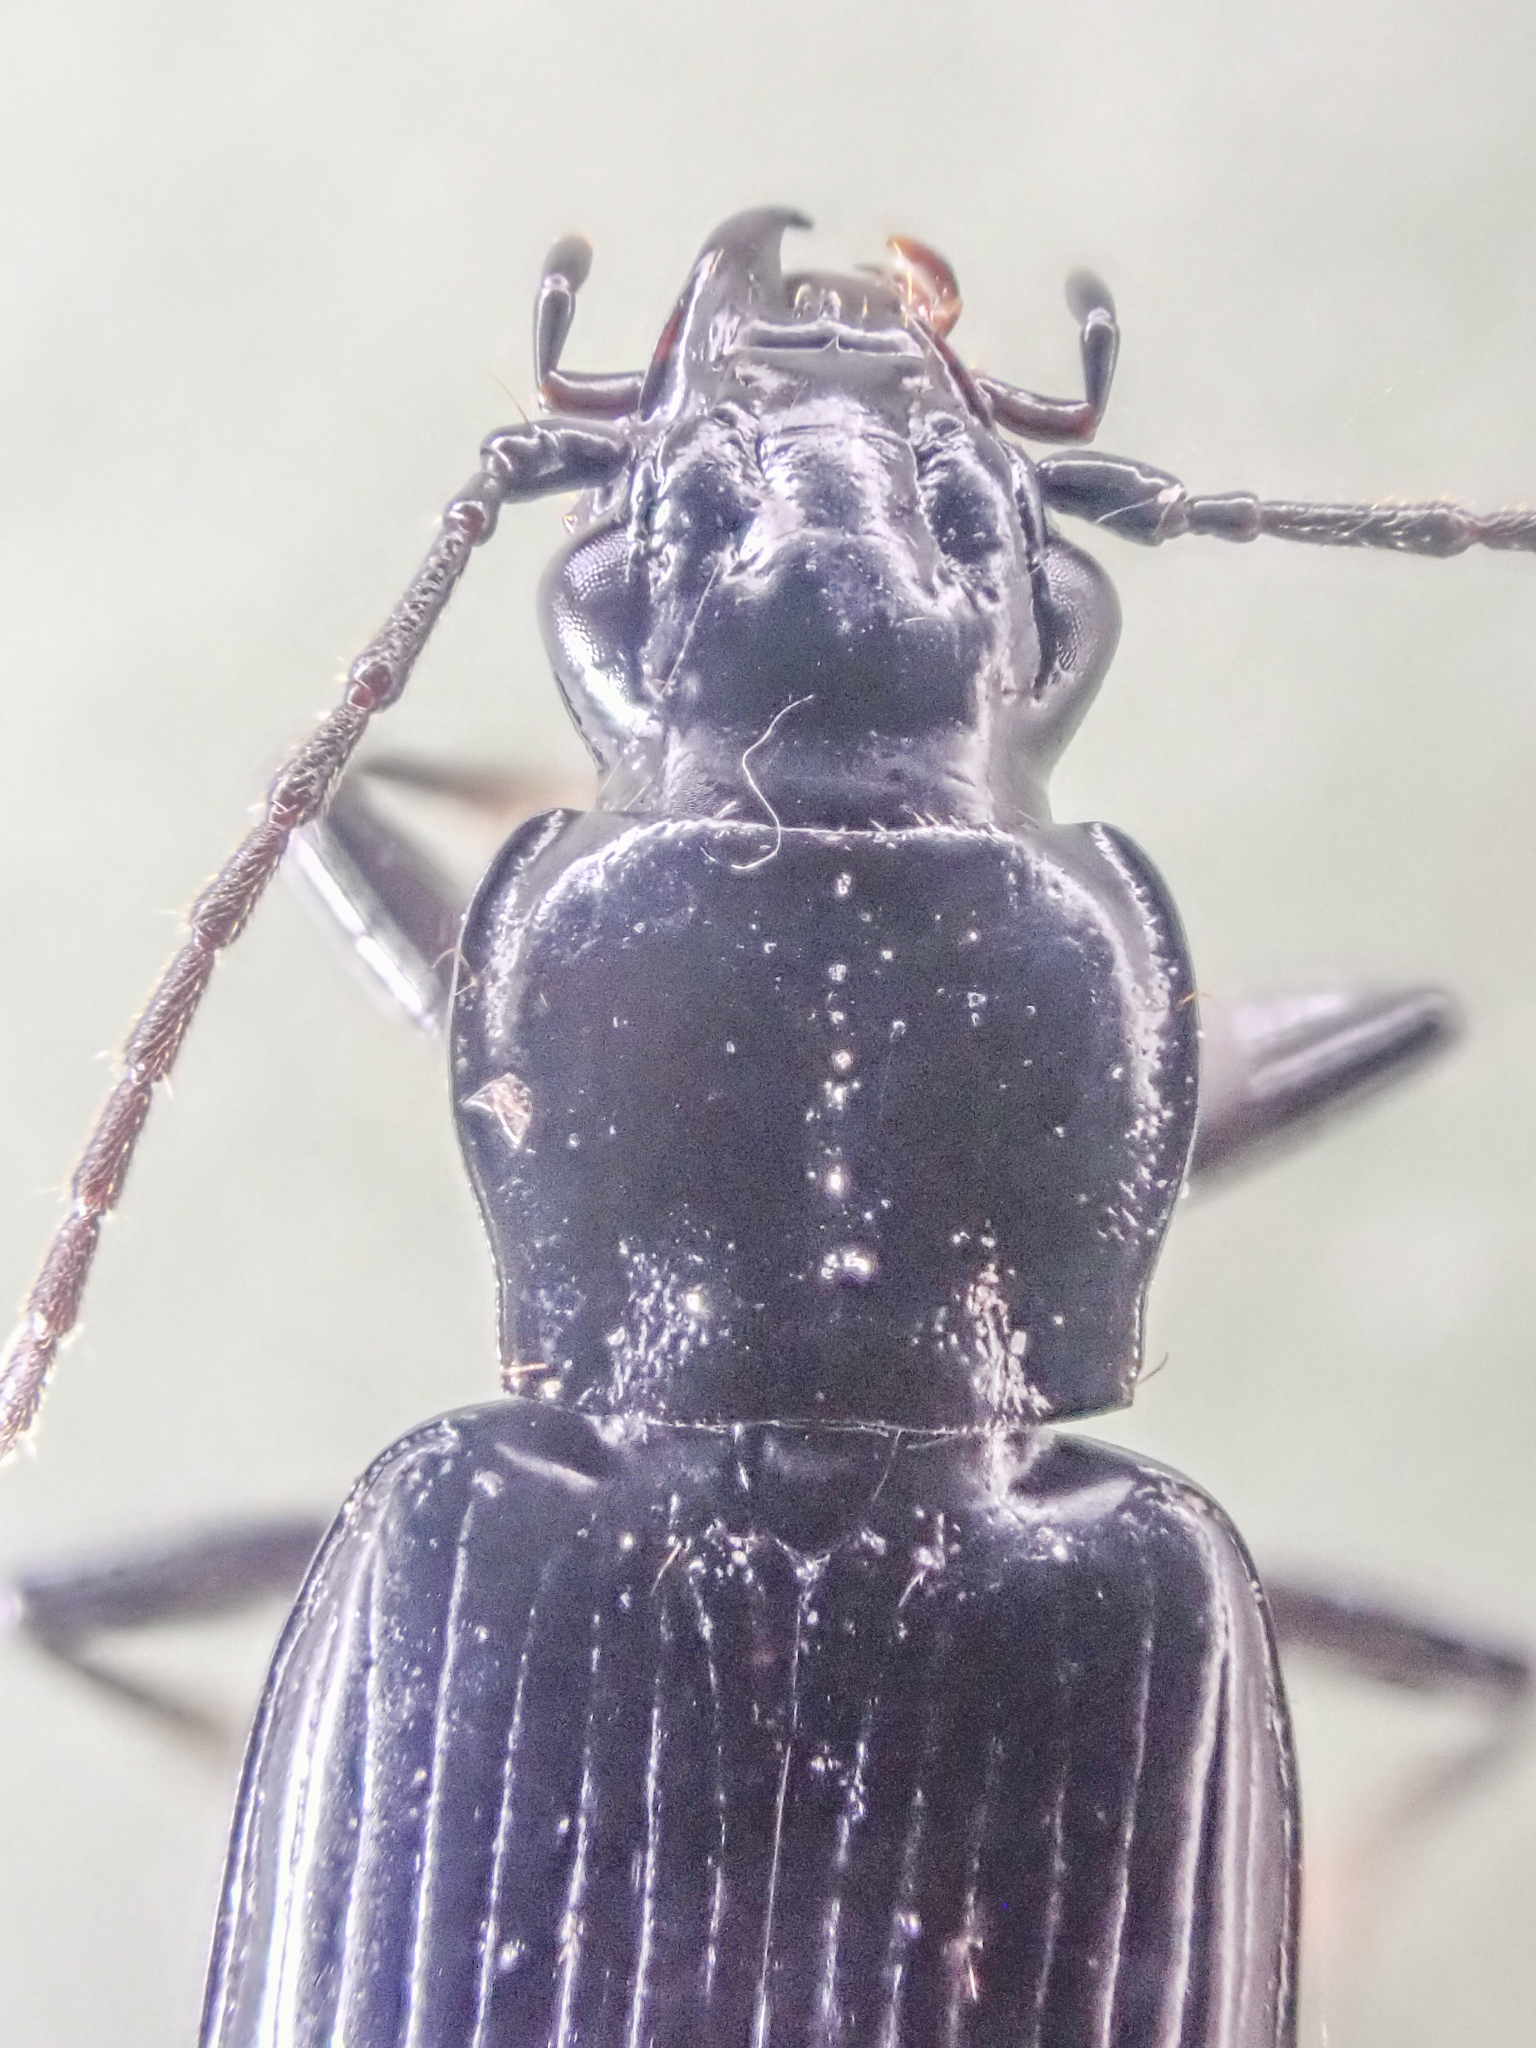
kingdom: Animalia
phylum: Arthropoda
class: Insecta
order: Coleoptera
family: Carabidae
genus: Diplous
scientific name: Diplous aterrimus
